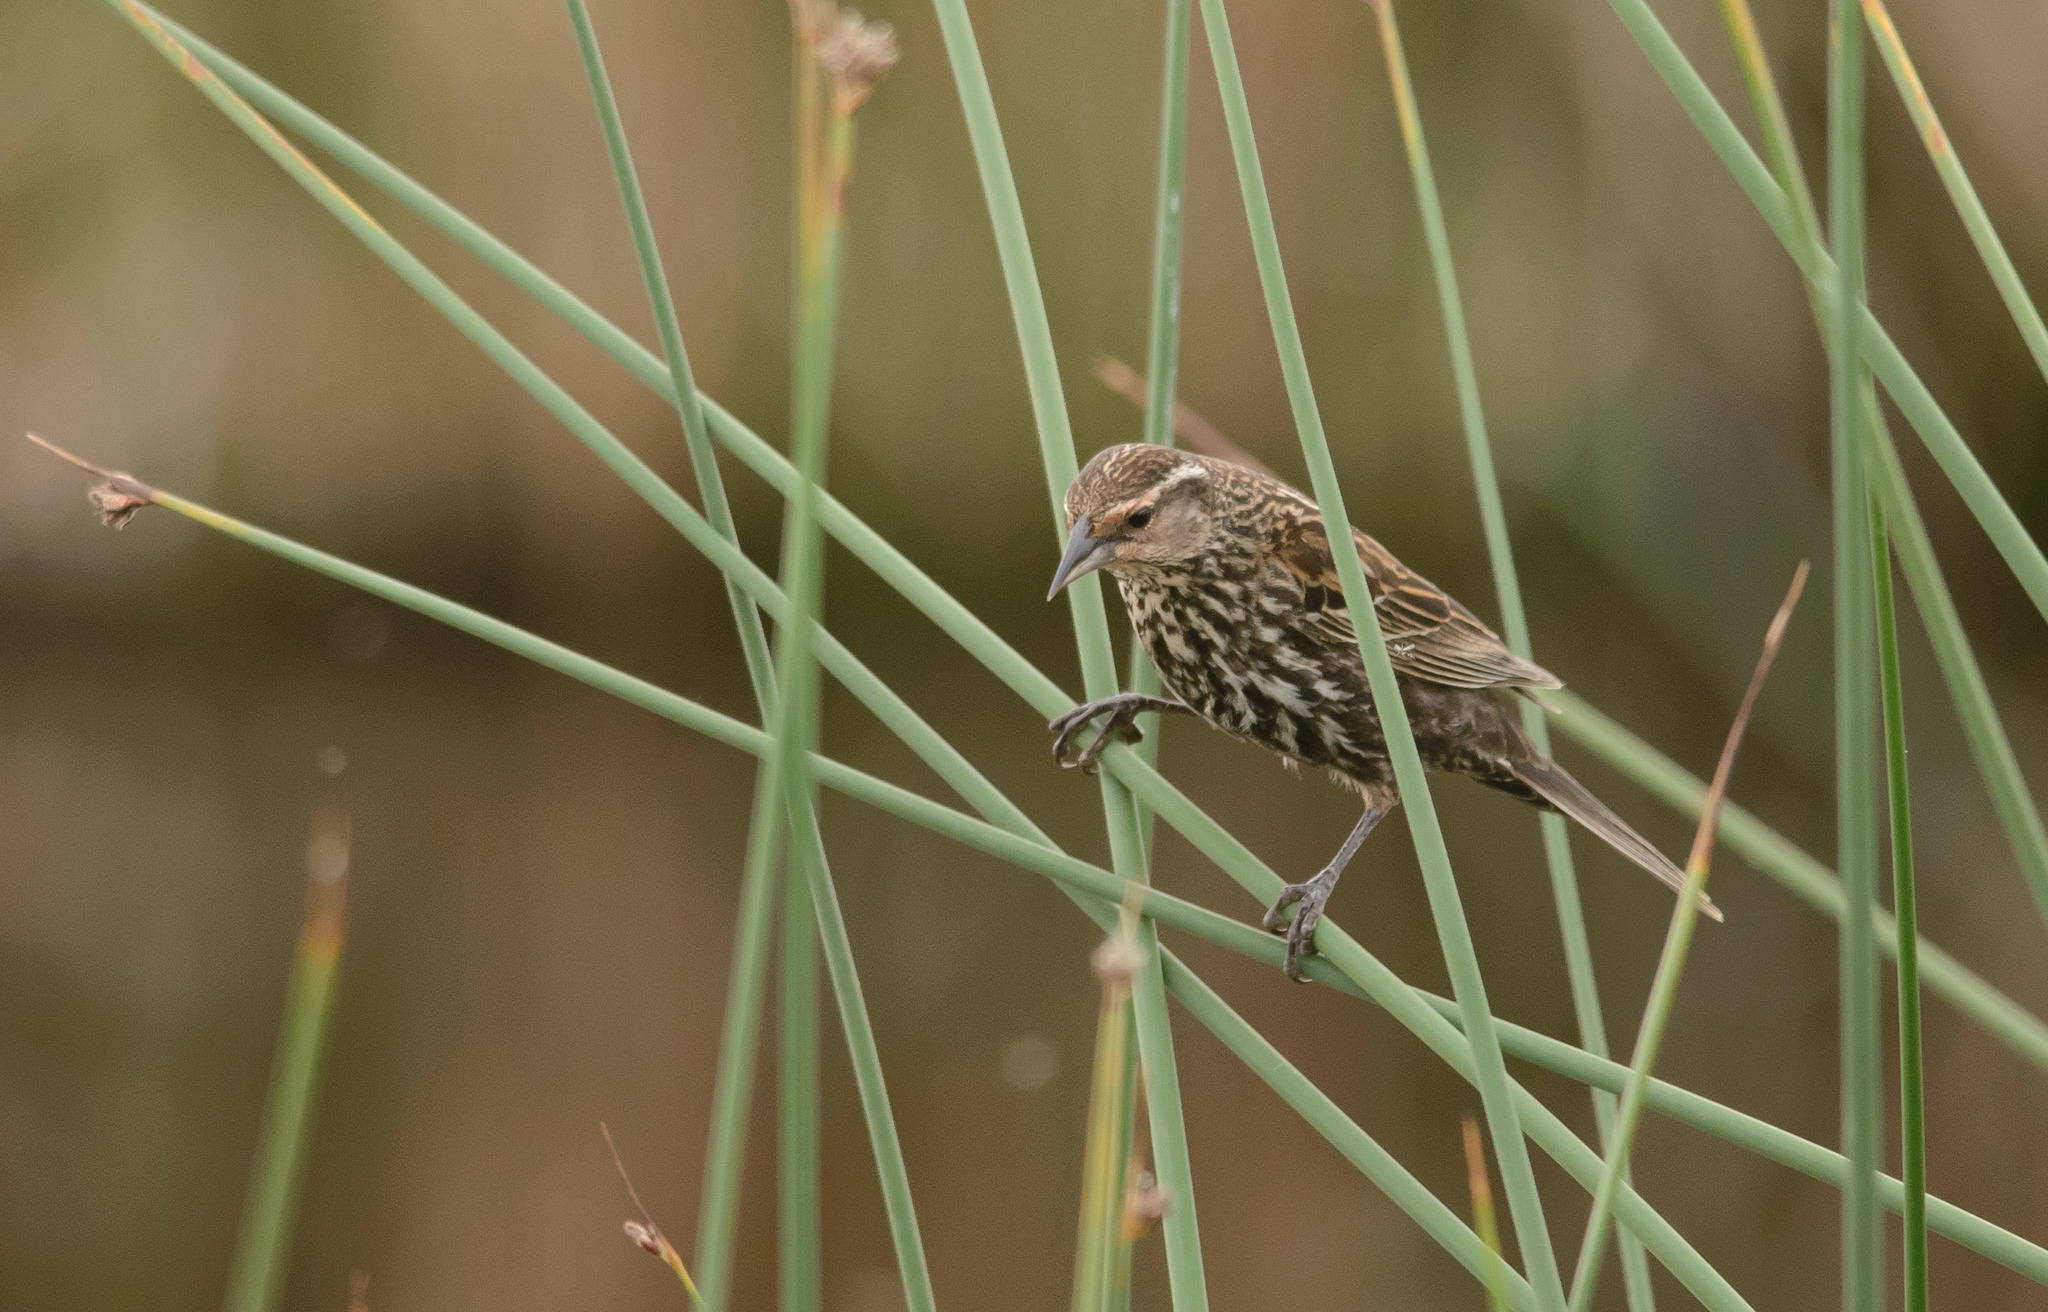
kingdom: Animalia
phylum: Chordata
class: Aves
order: Passeriformes
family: Icteridae
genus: Agelaius
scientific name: Agelaius phoeniceus
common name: Red-winged blackbird
